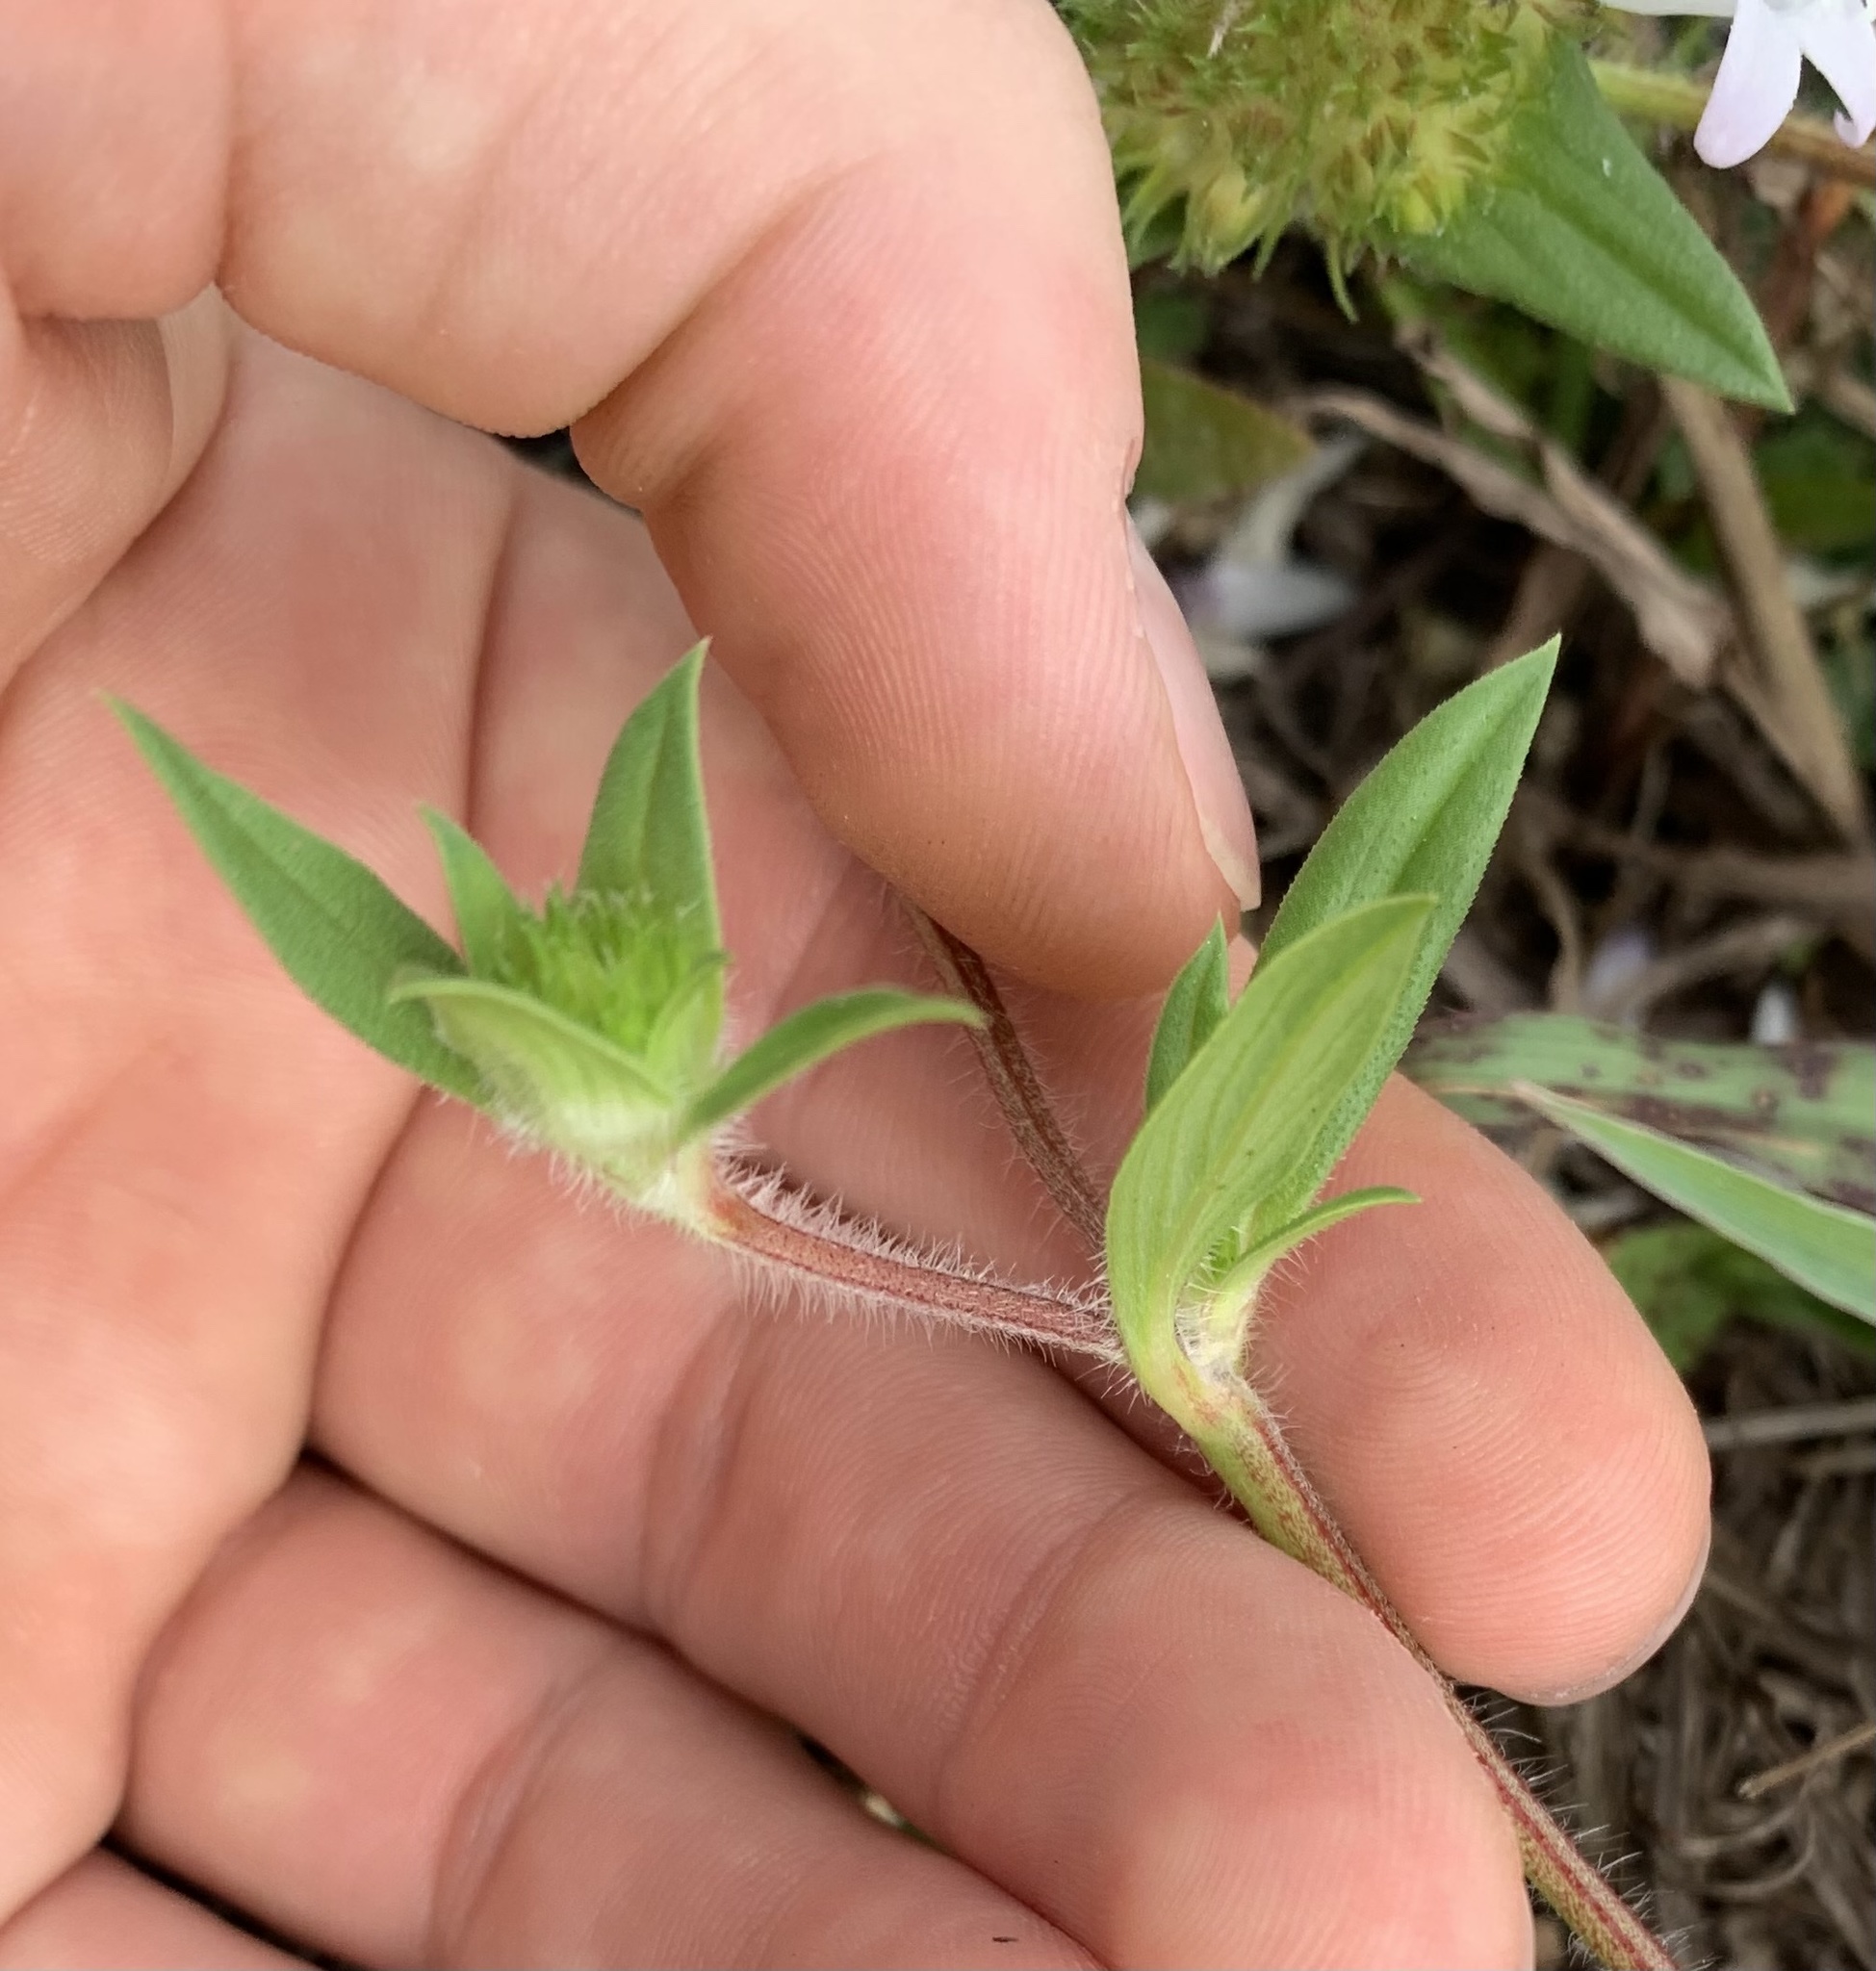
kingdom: Plantae
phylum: Tracheophyta
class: Magnoliopsida
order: Gentianales
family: Rubiaceae
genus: Richardia
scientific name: Richardia grandiflora
